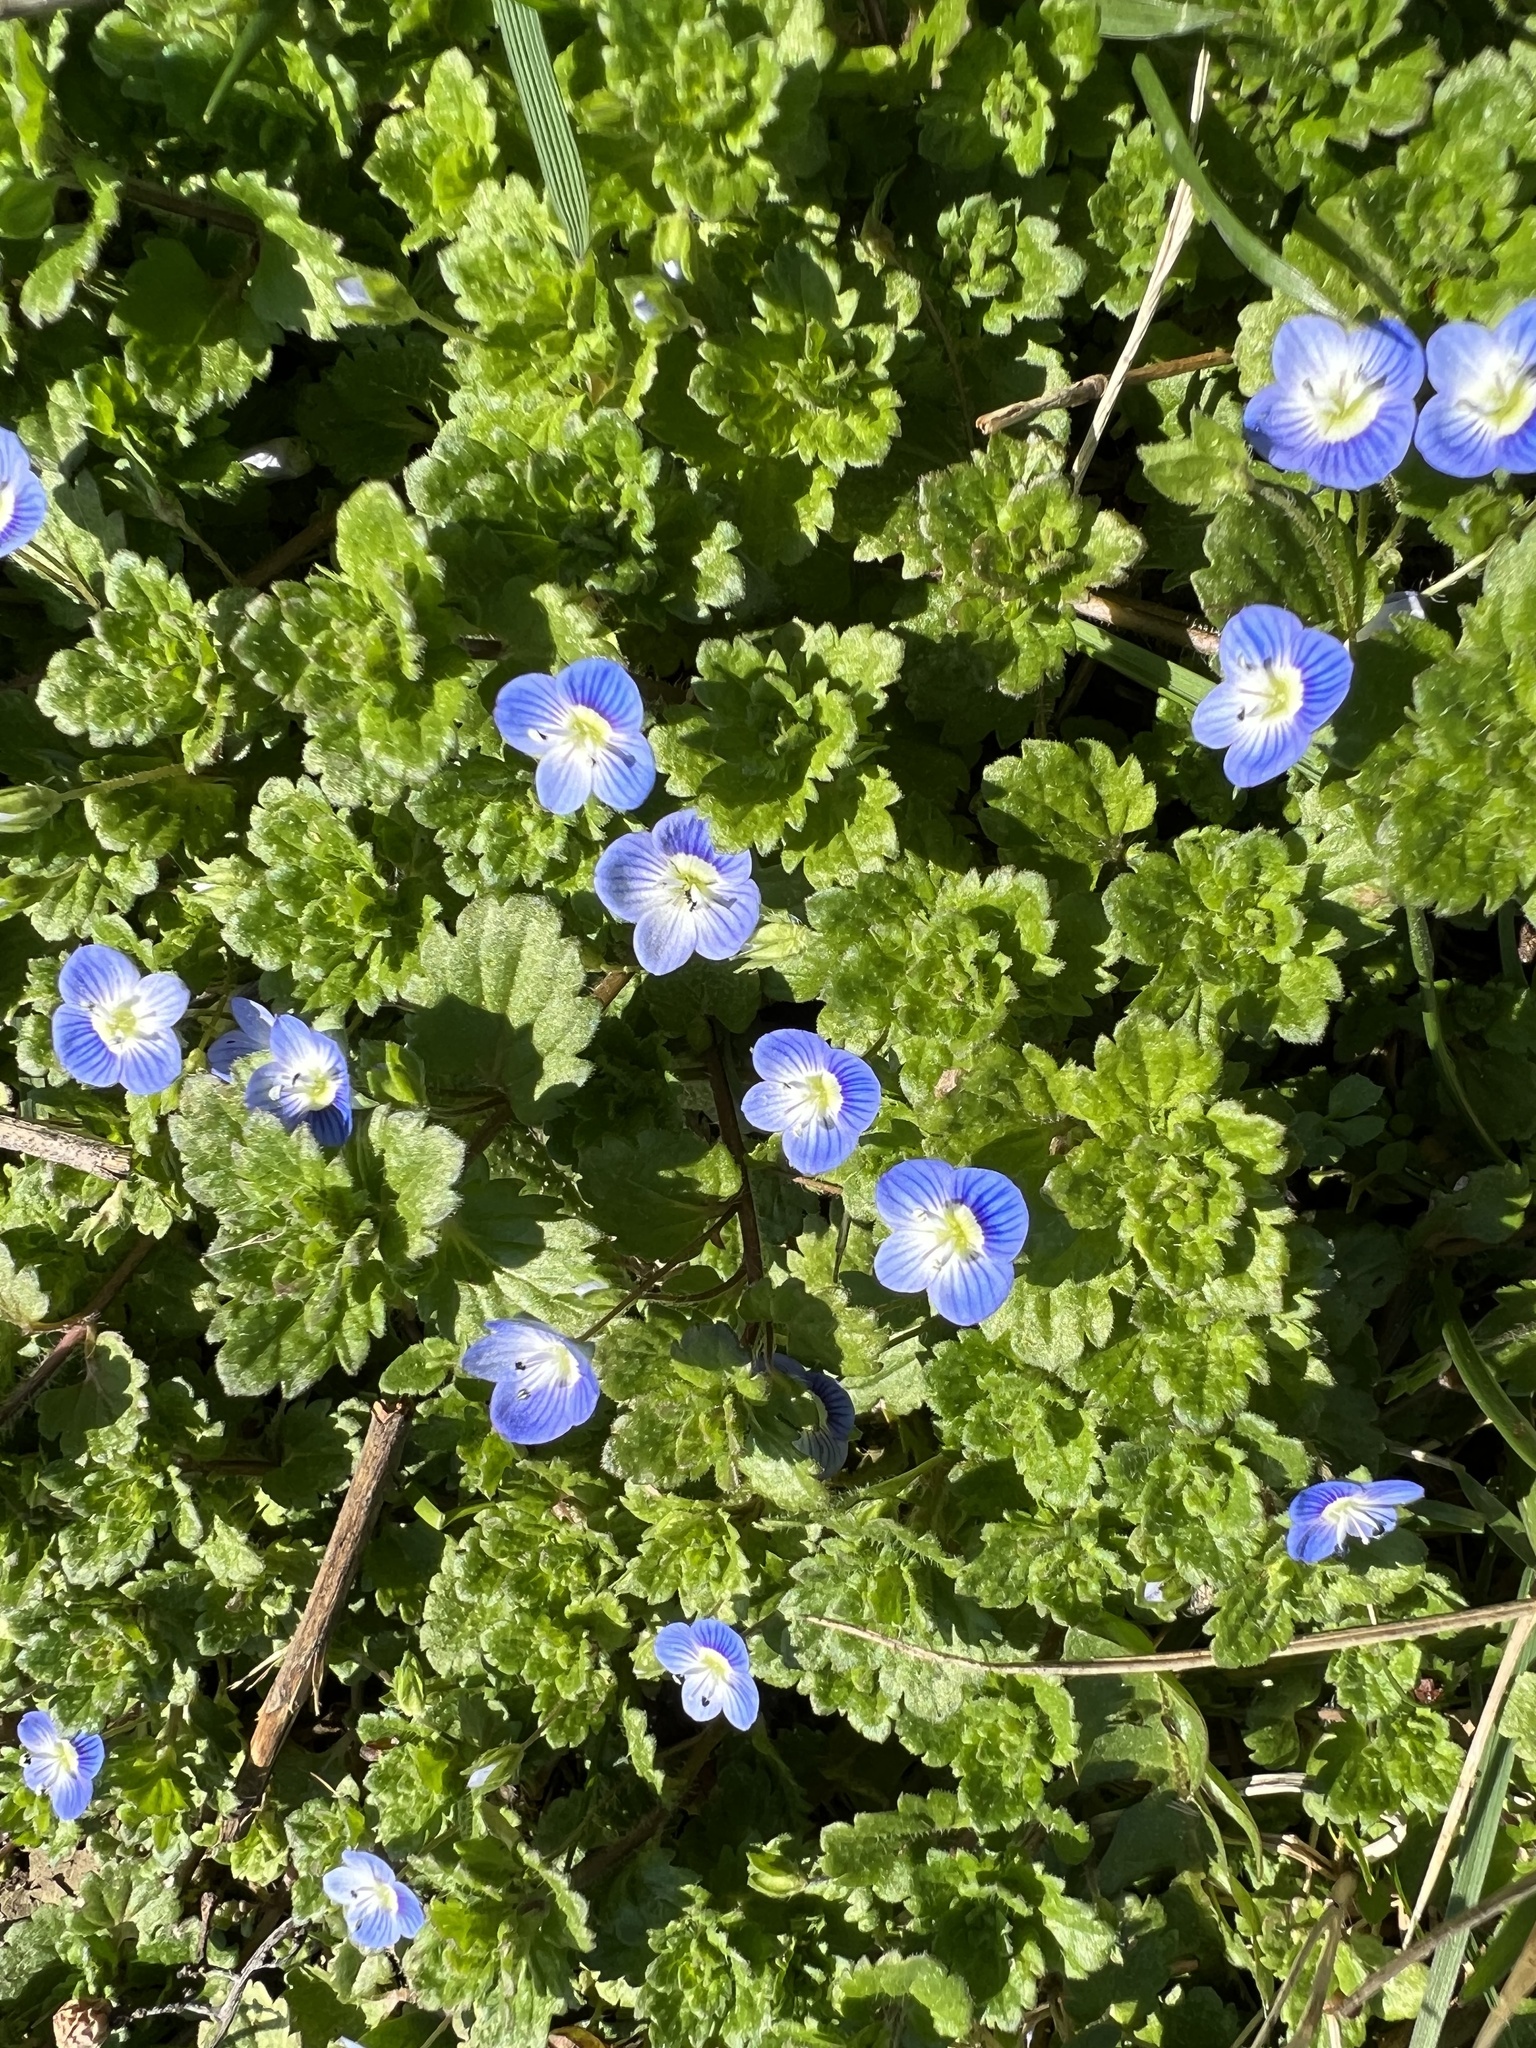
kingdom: Plantae
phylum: Tracheophyta
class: Magnoliopsida
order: Lamiales
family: Plantaginaceae
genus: Veronica
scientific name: Veronica persica
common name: Common field-speedwell
